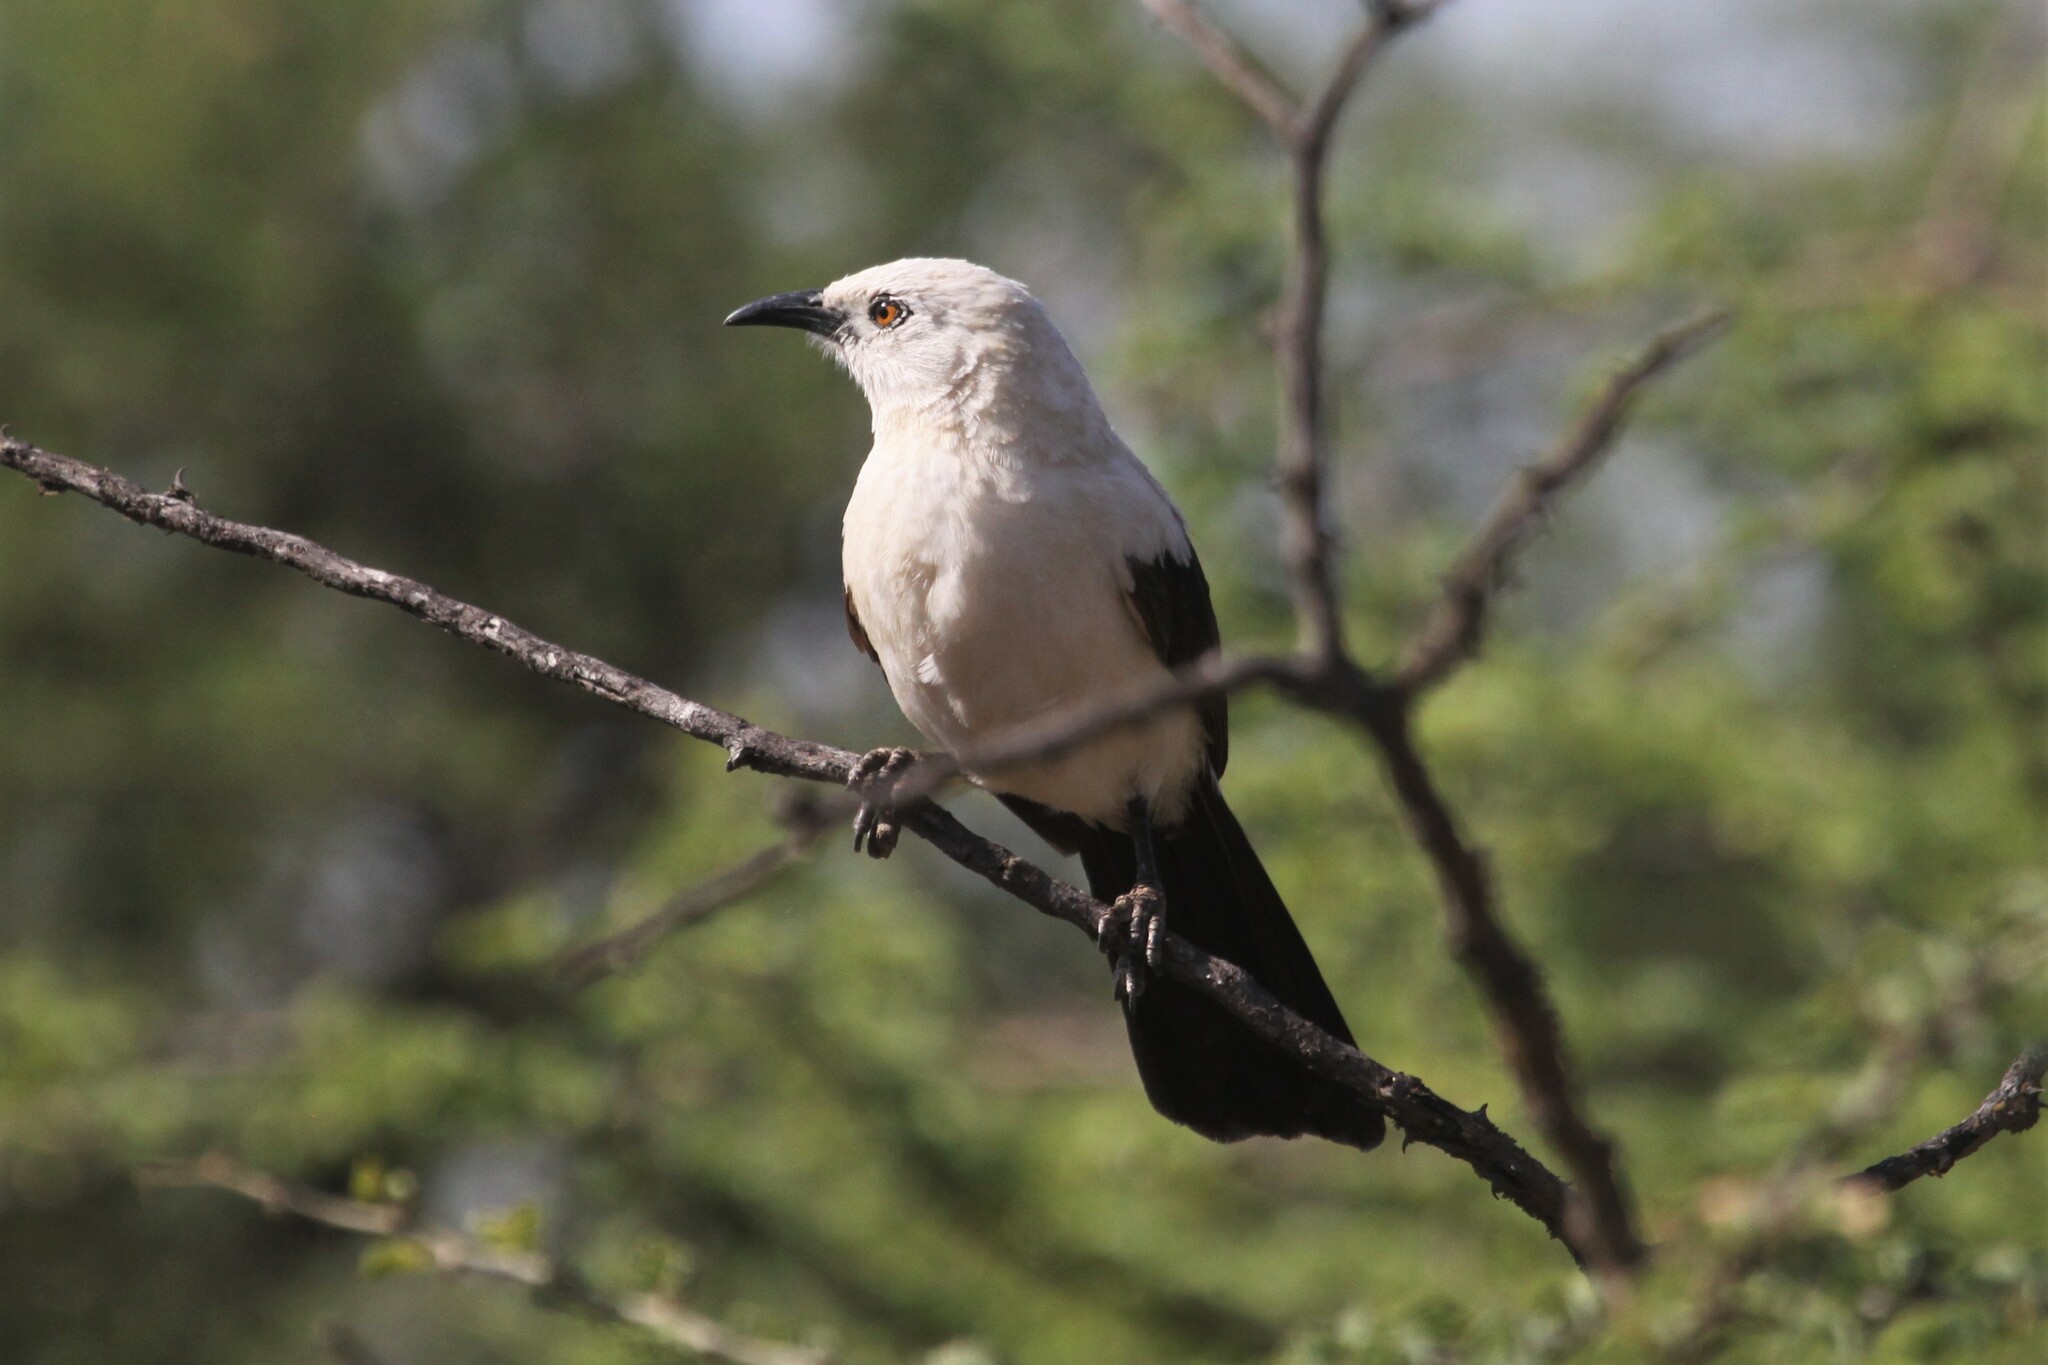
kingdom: Animalia
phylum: Chordata
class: Aves
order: Passeriformes
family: Leiothrichidae
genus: Turdoides
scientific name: Turdoides bicolor
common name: Southern pied babbler
